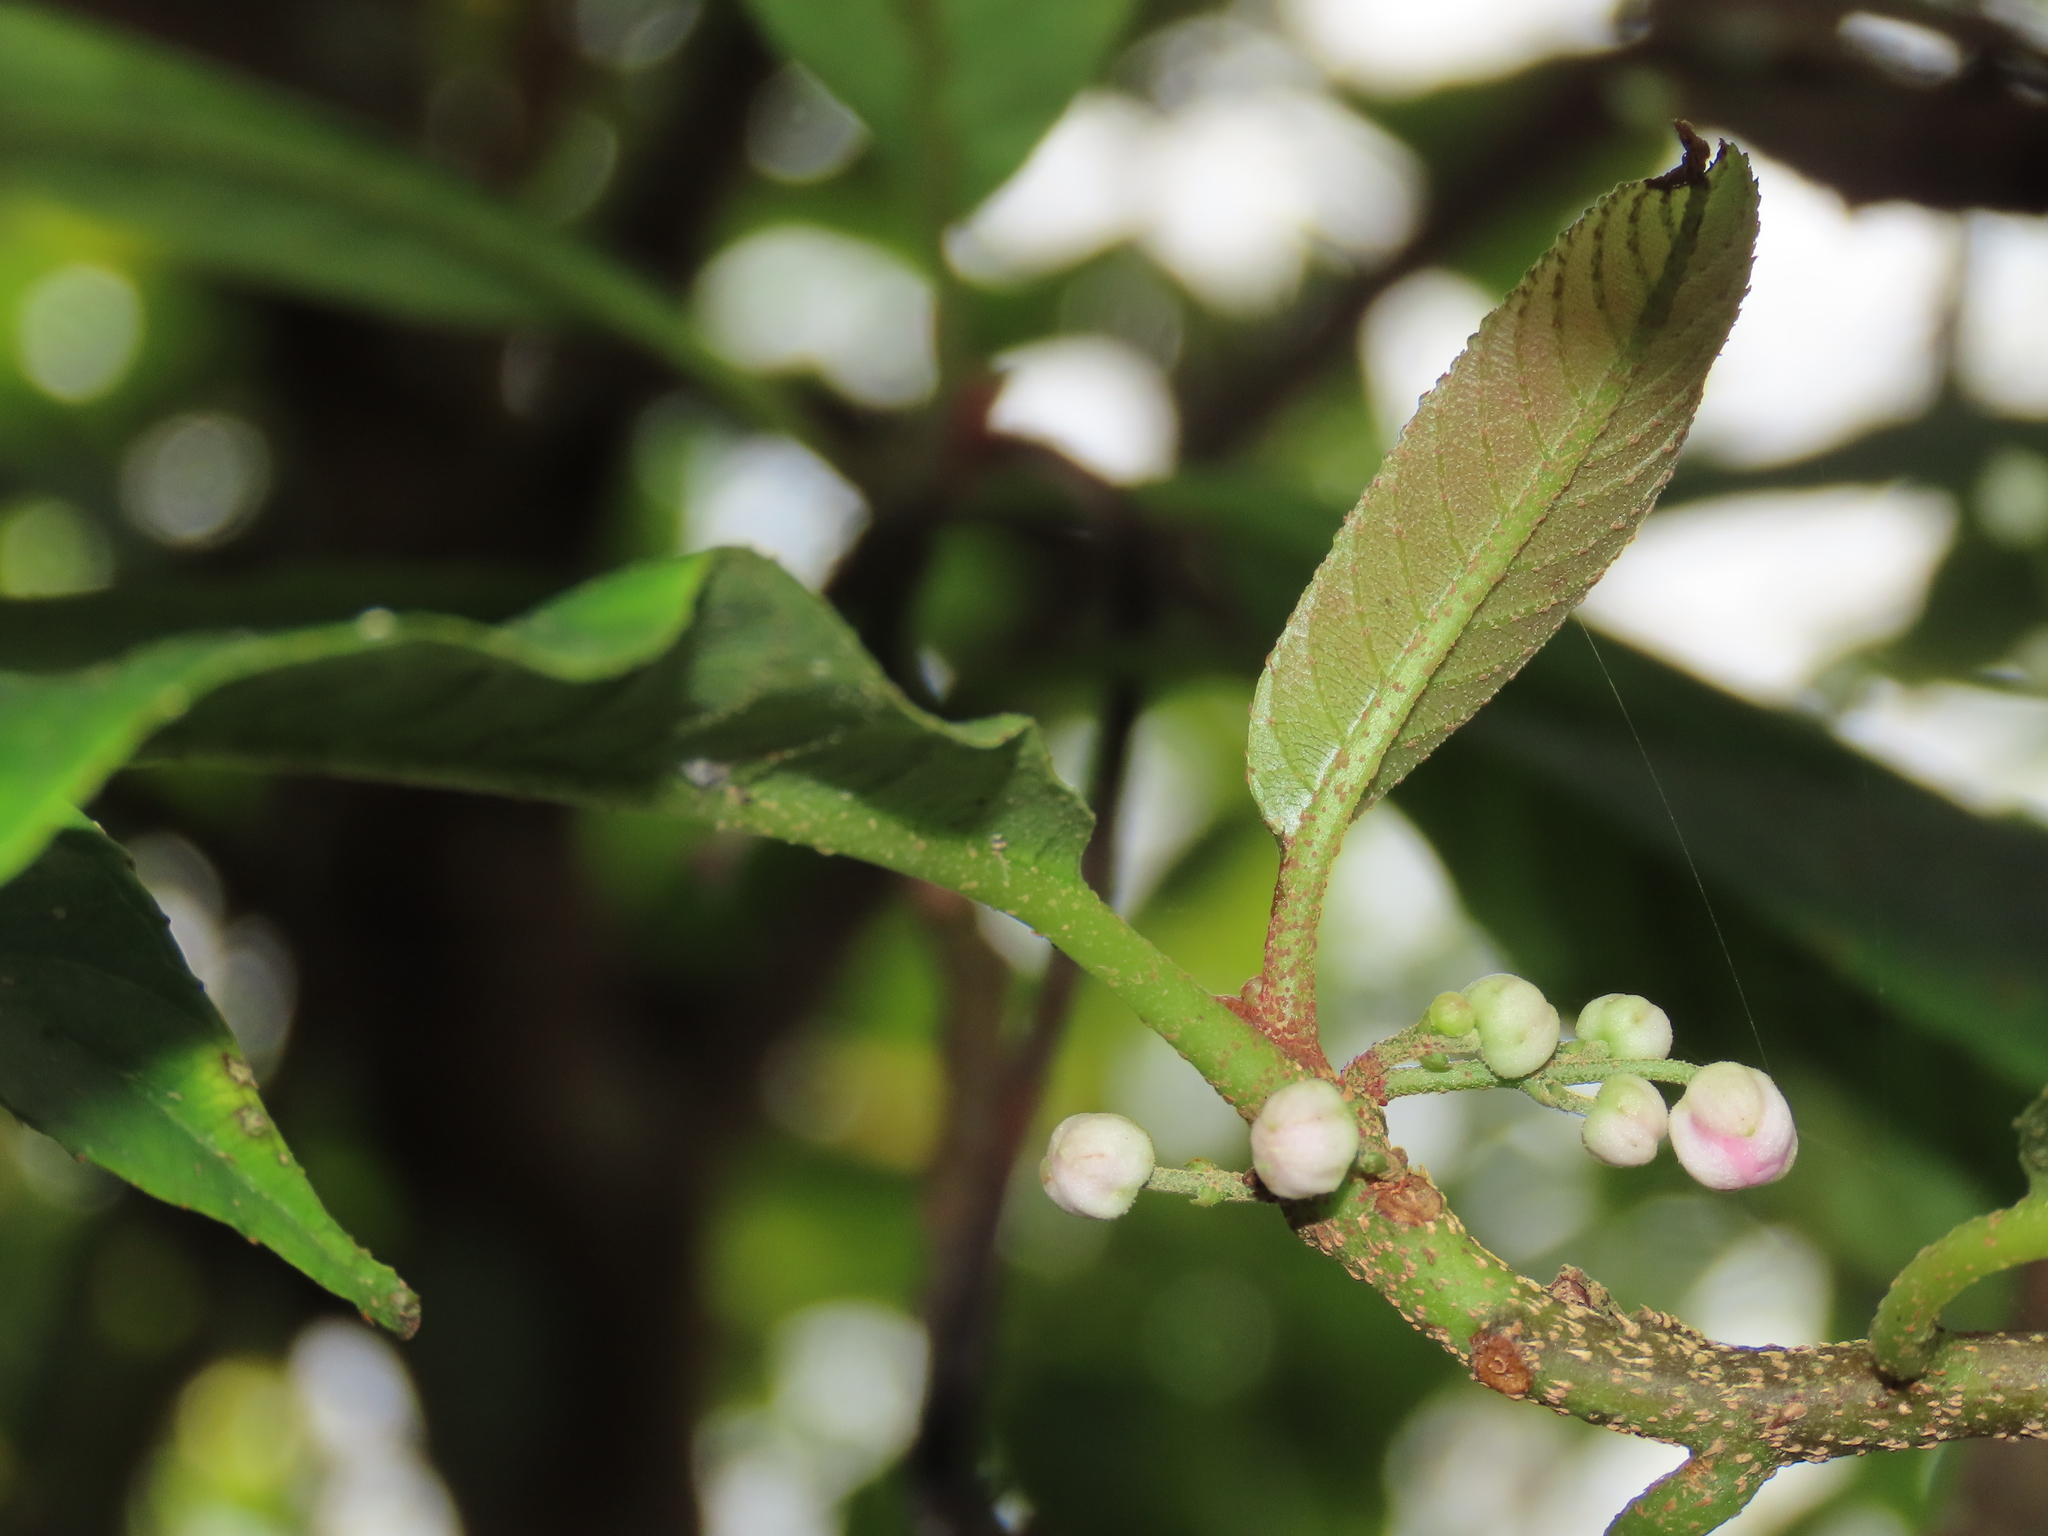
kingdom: Plantae
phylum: Tracheophyta
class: Magnoliopsida
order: Ericales
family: Actinidiaceae
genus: Saurauia
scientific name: Saurauia tristyla
